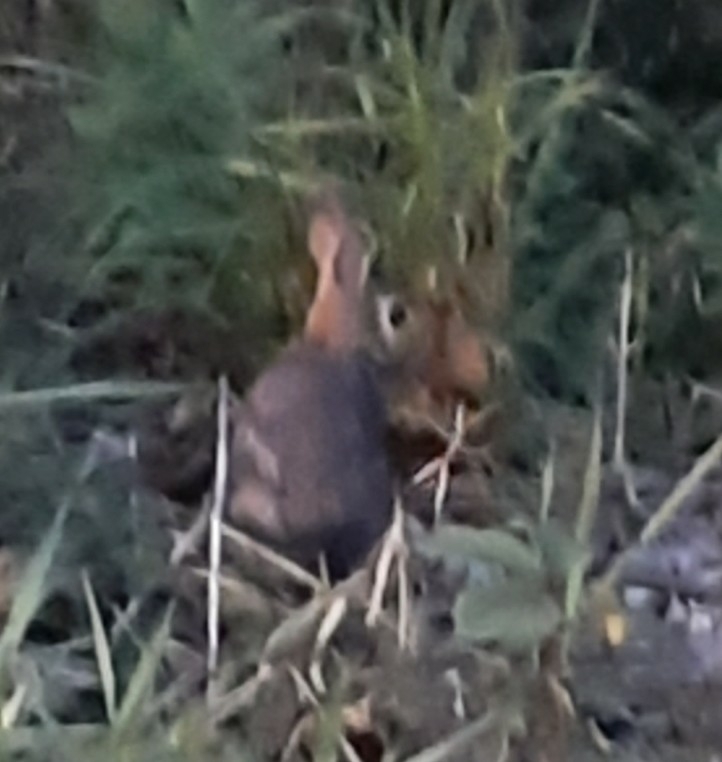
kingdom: Animalia
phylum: Chordata
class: Mammalia
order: Lagomorpha
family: Leporidae
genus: Sylvilagus
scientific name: Sylvilagus floridanus
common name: Eastern cottontail
